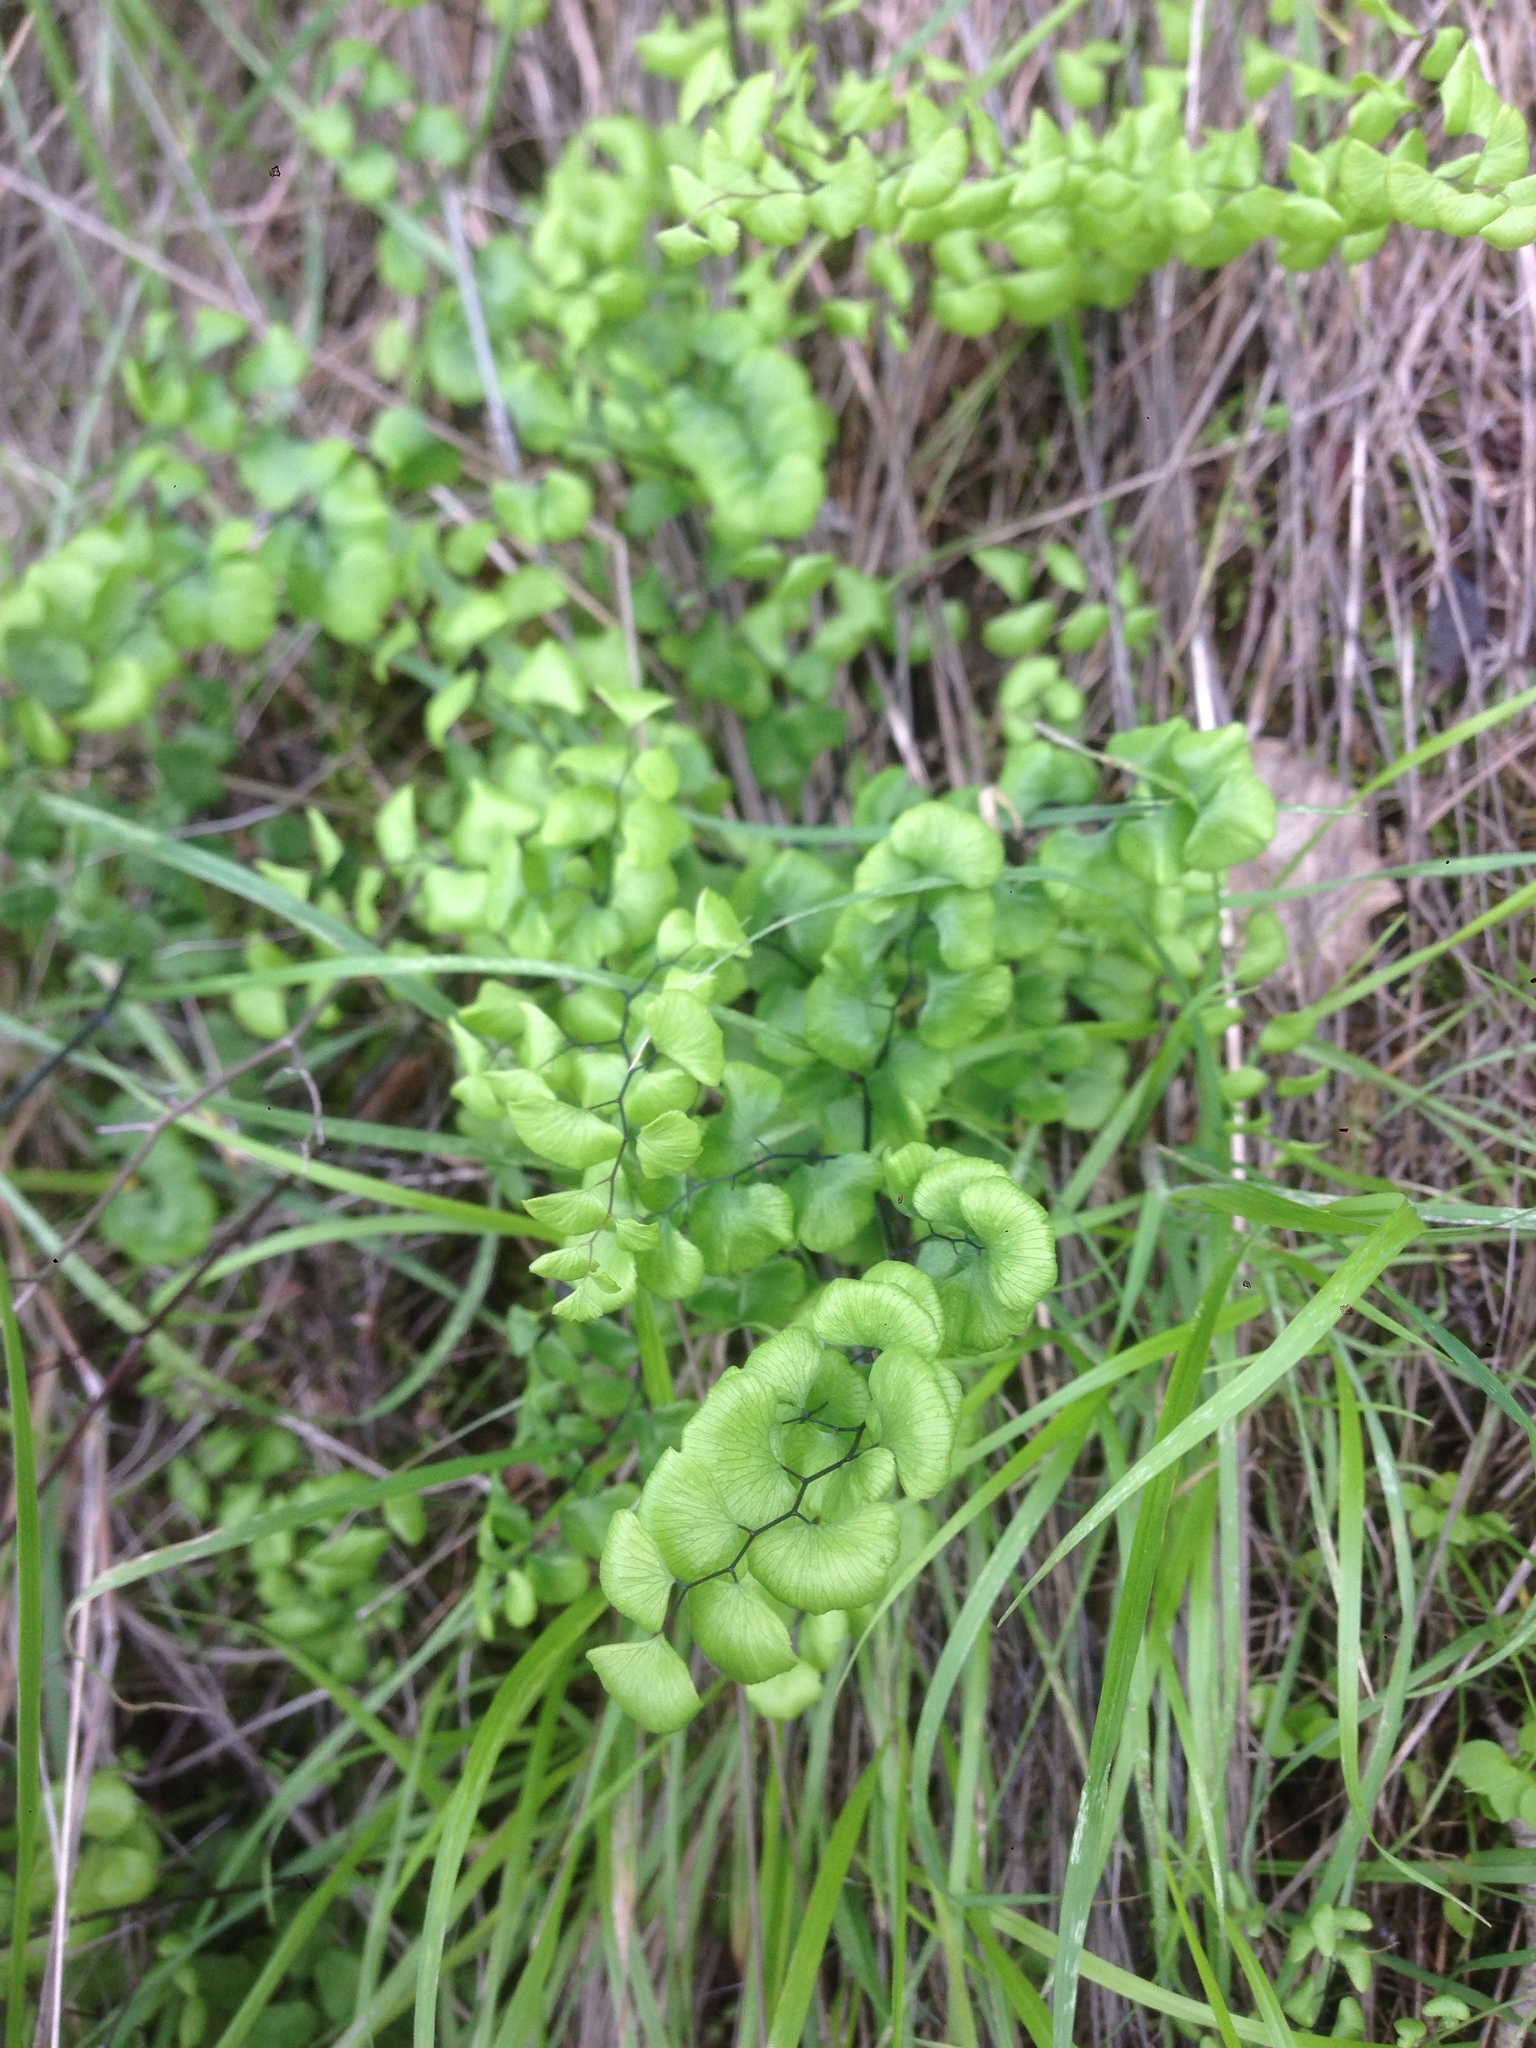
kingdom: Plantae
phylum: Tracheophyta
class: Polypodiopsida
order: Polypodiales
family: Pteridaceae
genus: Adiantum
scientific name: Adiantum jordanii
